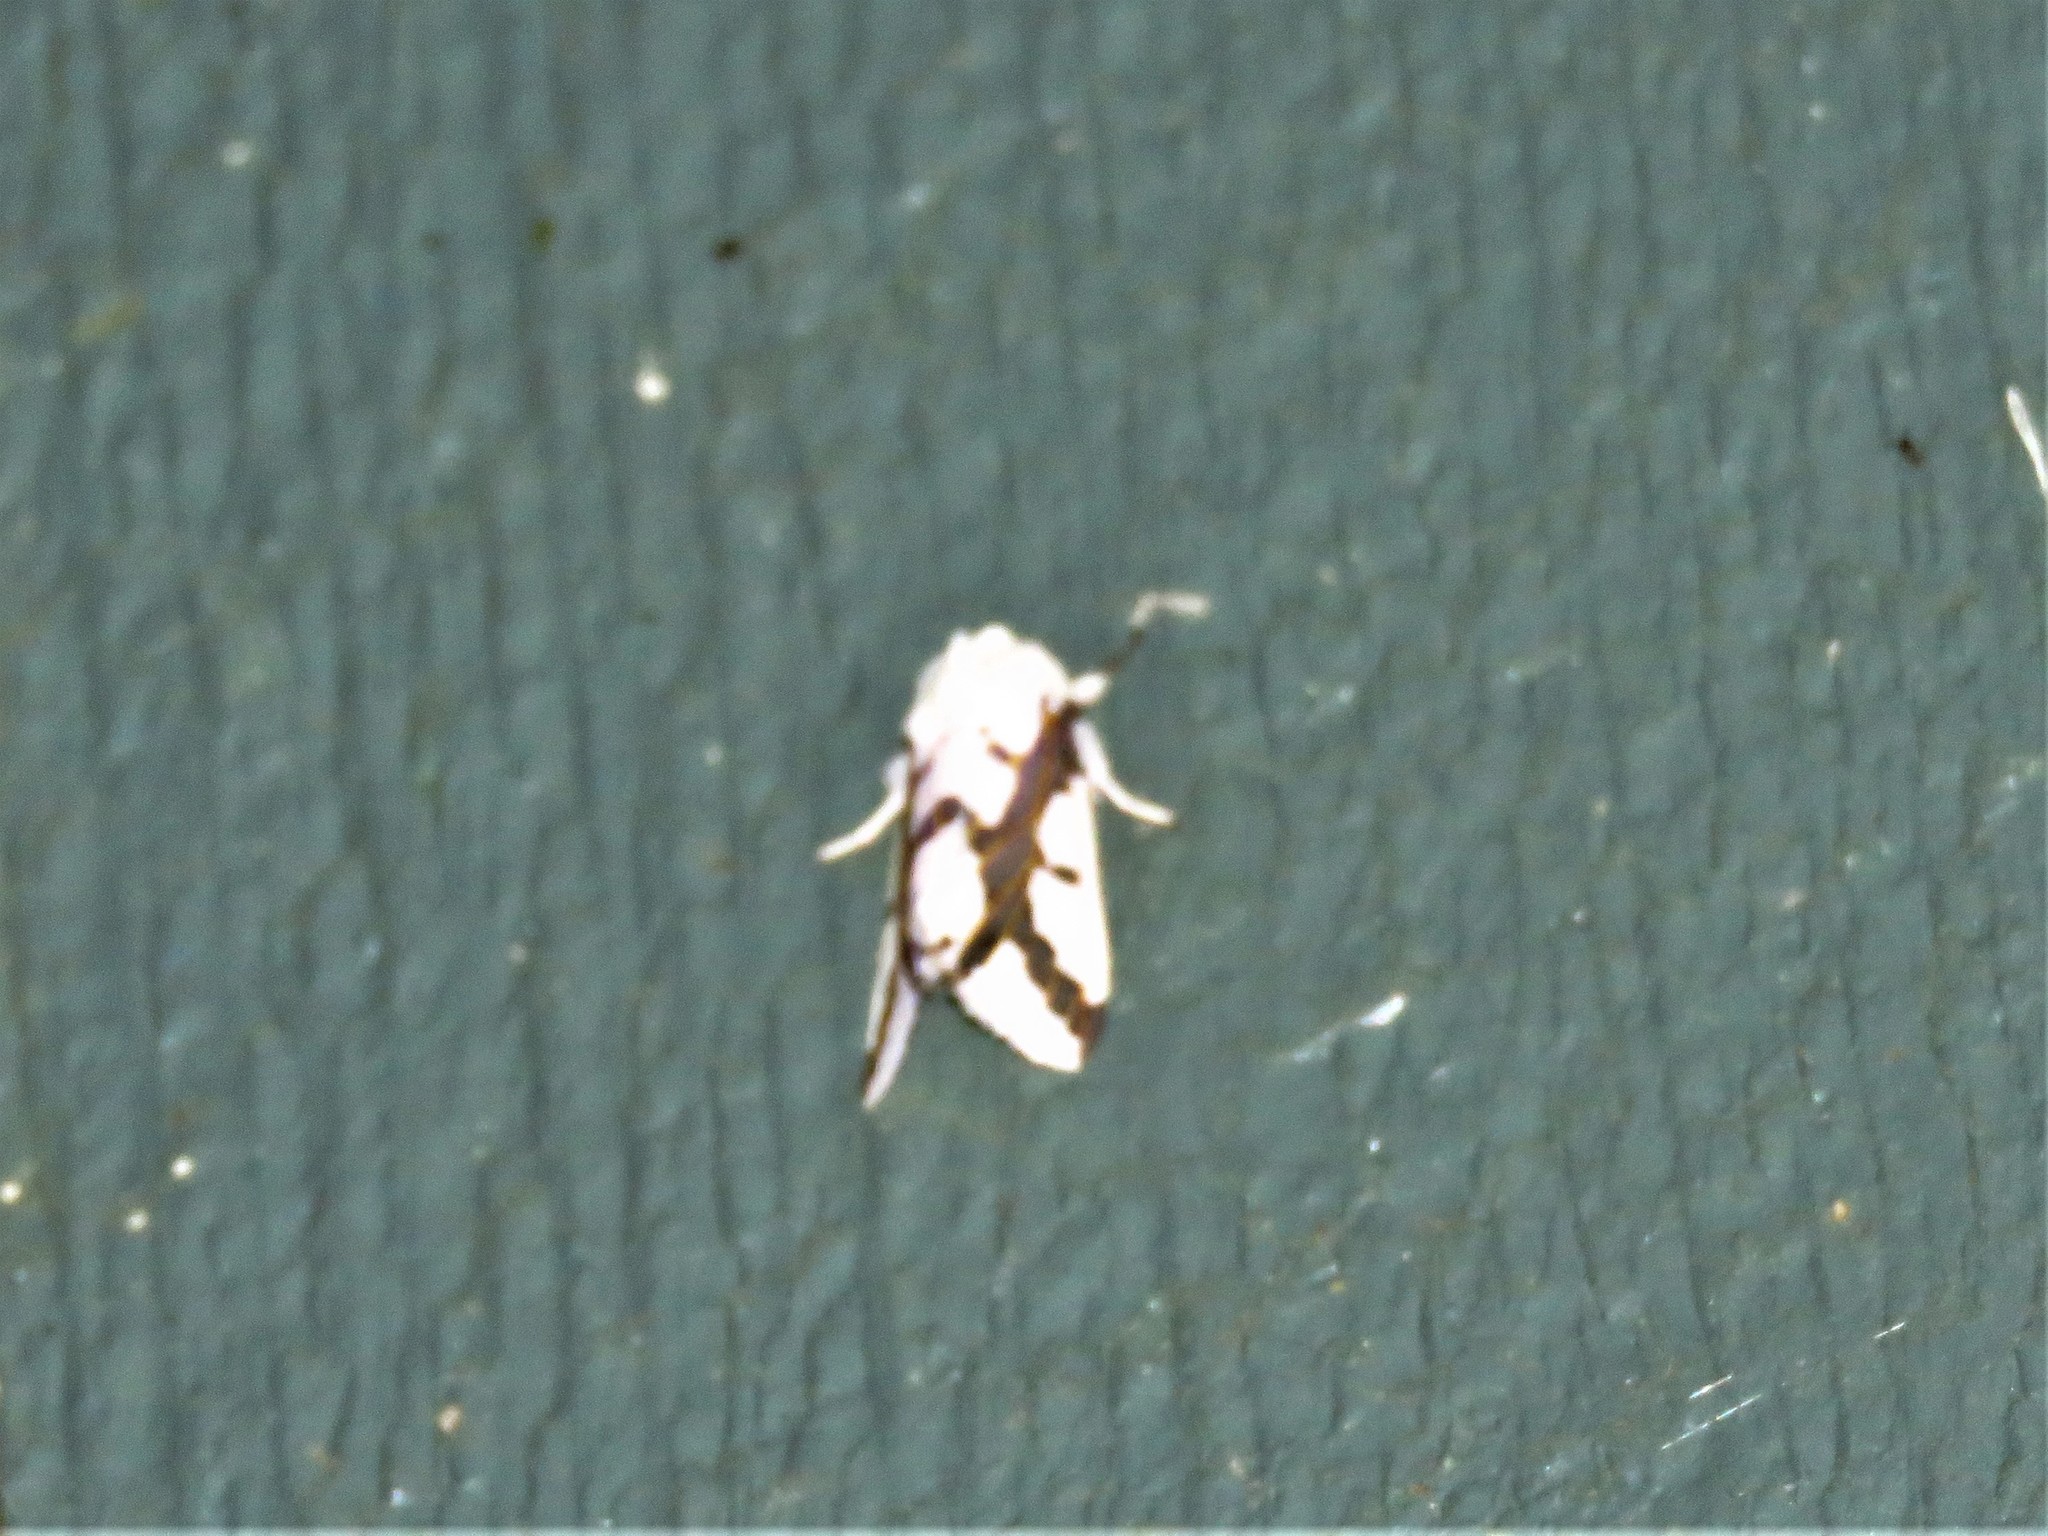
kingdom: Animalia
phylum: Arthropoda
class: Insecta
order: Lepidoptera
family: Erebidae
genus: Euerythra
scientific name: Euerythra phasma
